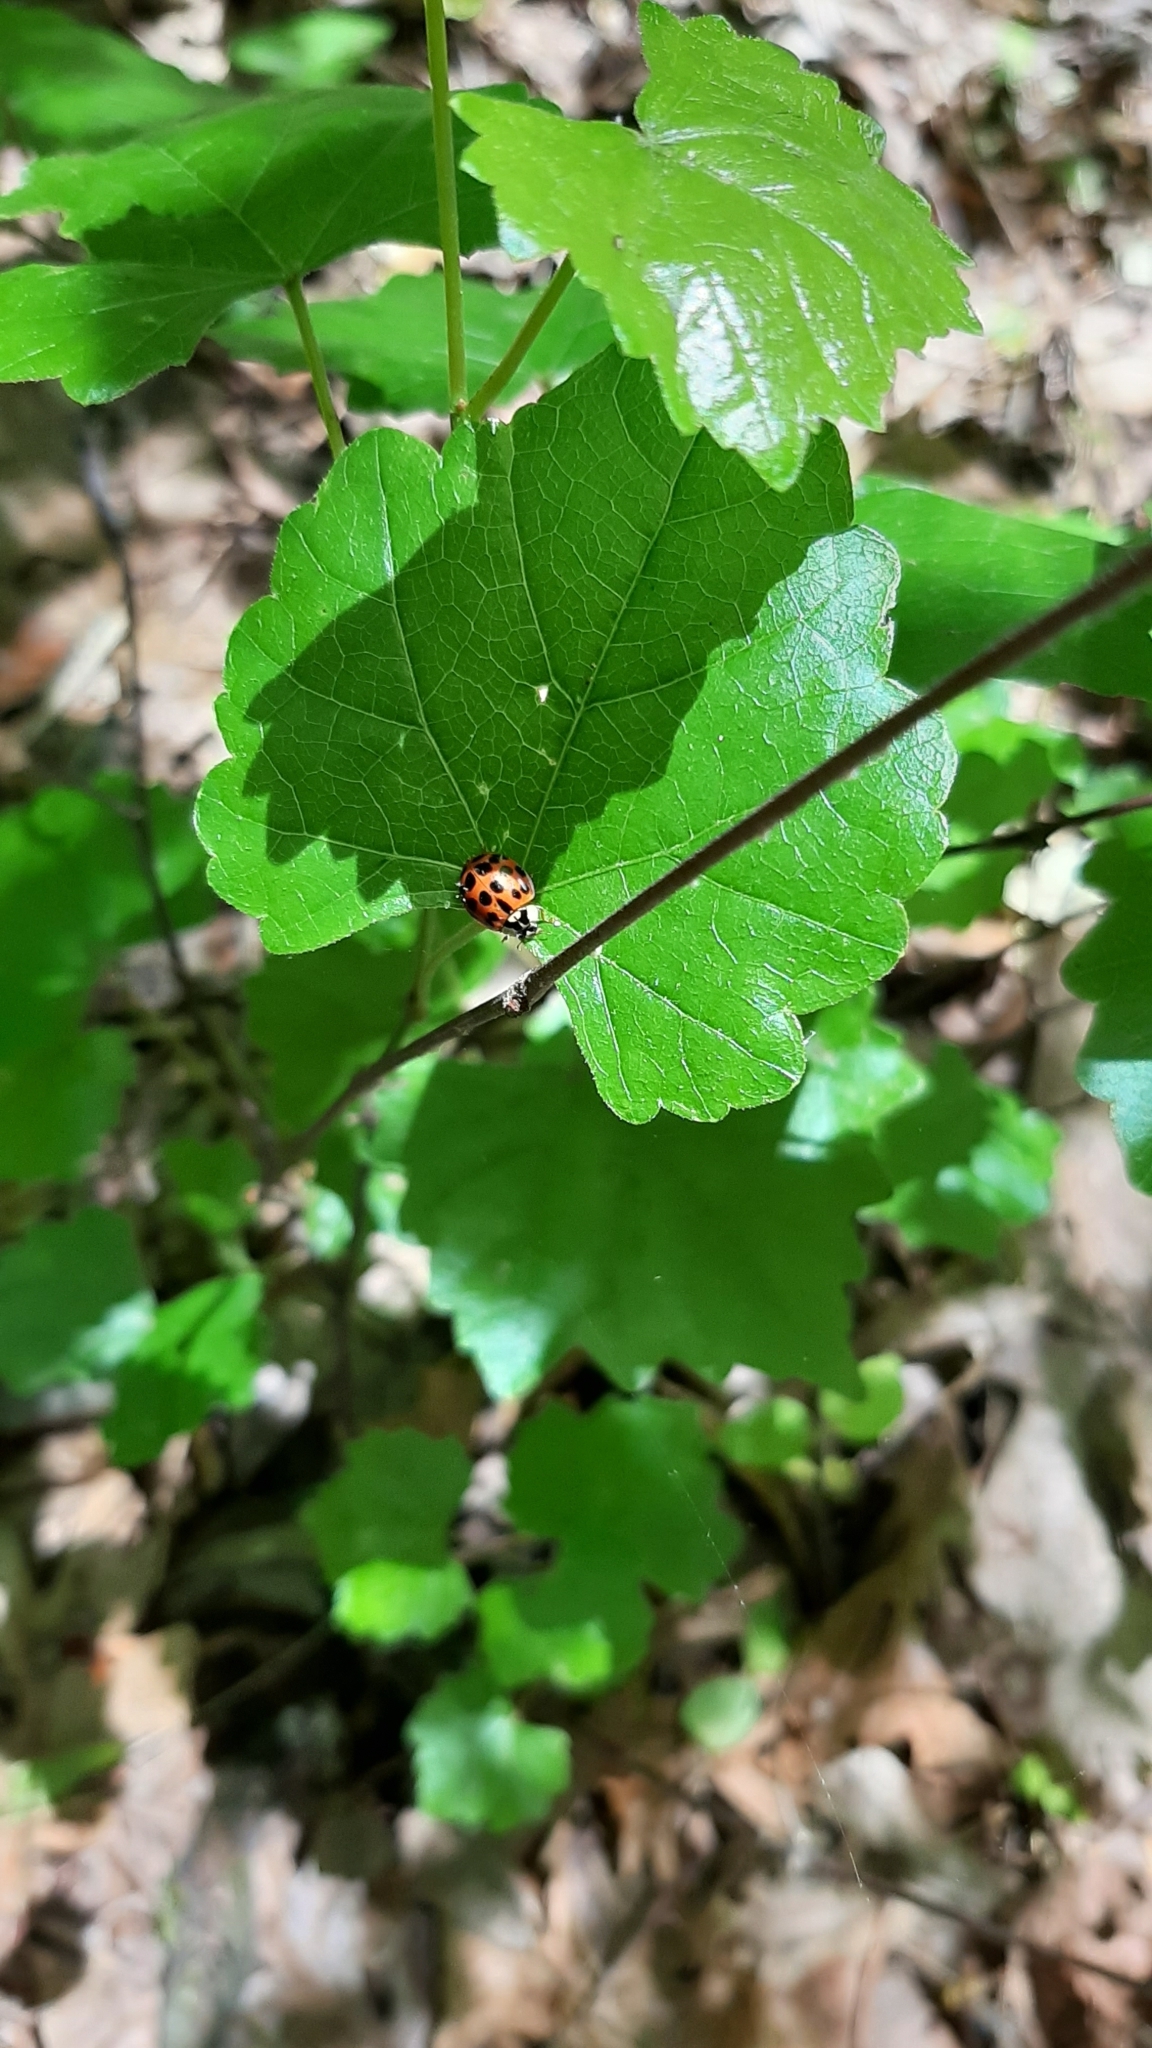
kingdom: Animalia
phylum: Arthropoda
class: Insecta
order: Coleoptera
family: Coccinellidae
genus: Harmonia
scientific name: Harmonia axyridis
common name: Harlequin ladybird
